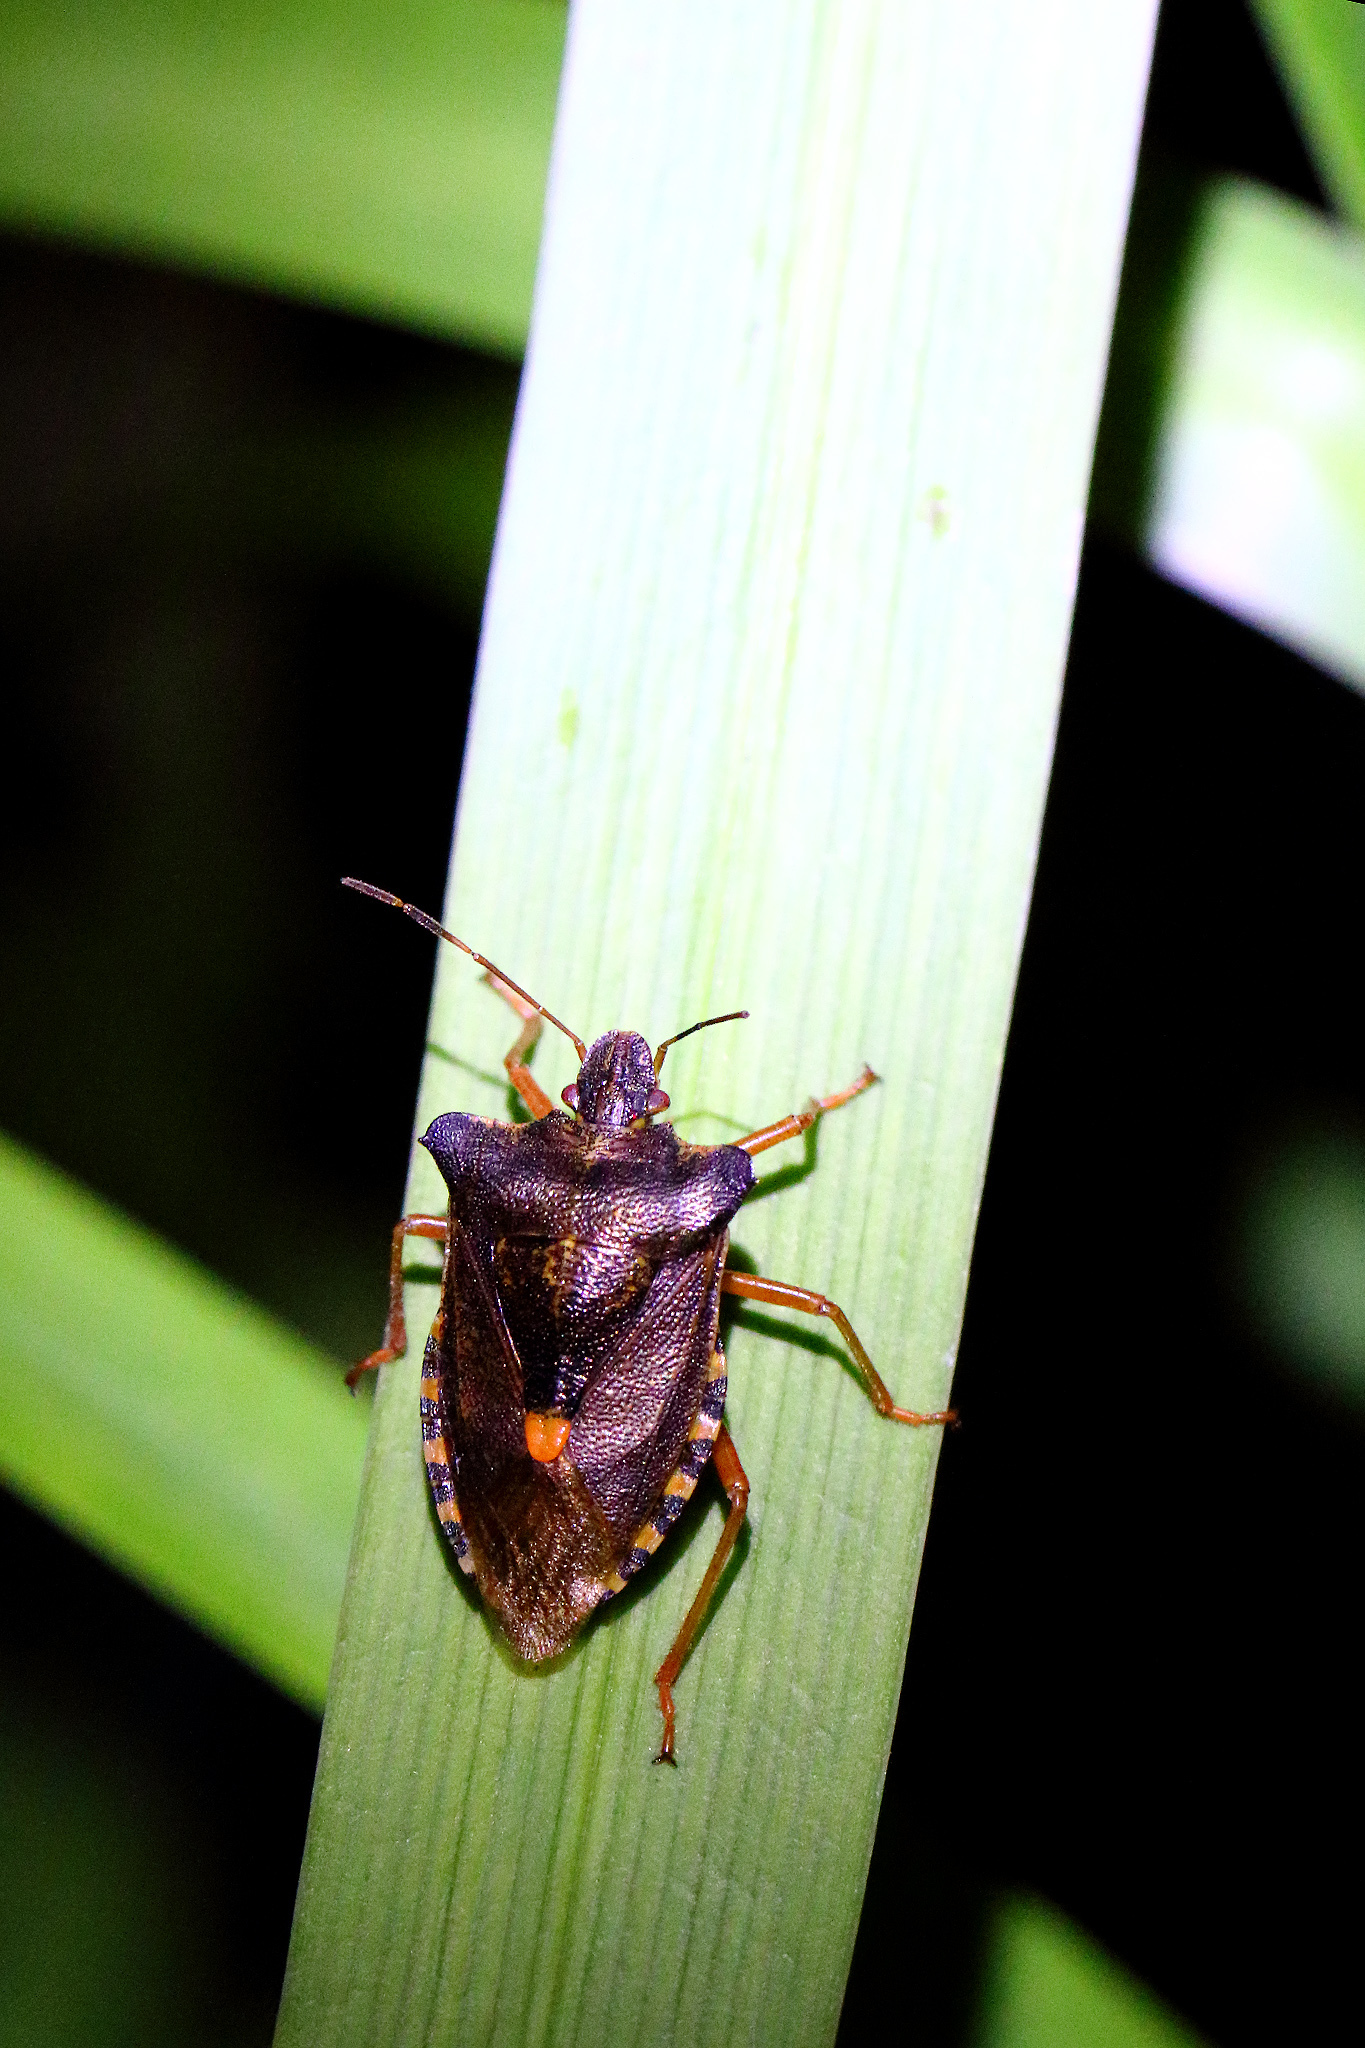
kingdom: Animalia
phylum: Arthropoda
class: Insecta
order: Hemiptera
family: Pentatomidae
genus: Pentatoma
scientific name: Pentatoma rufipes
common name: Forest bug
